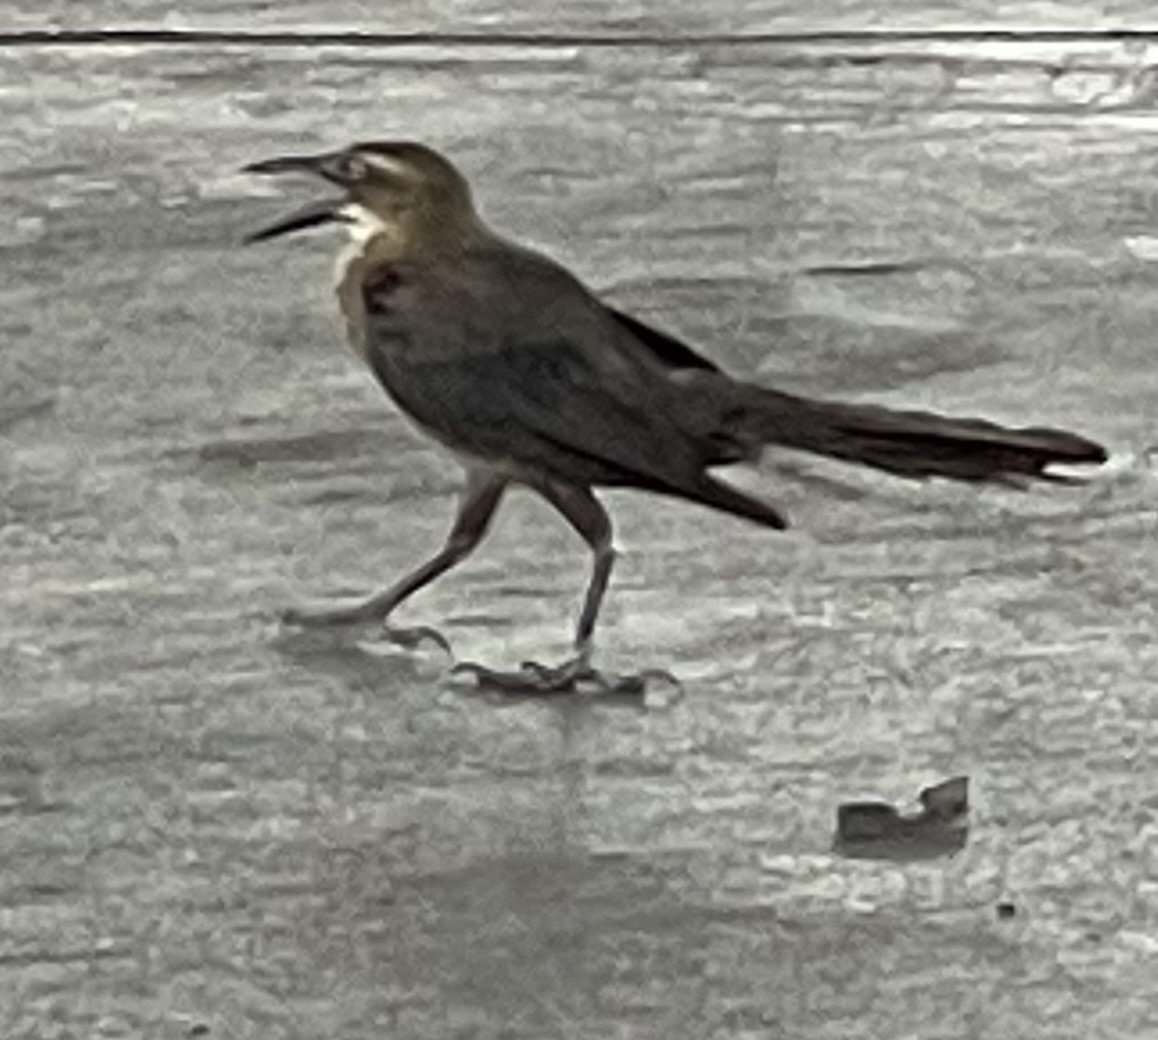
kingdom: Animalia
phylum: Chordata
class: Aves
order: Passeriformes
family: Icteridae
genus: Quiscalus
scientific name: Quiscalus mexicanus
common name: Great-tailed grackle
